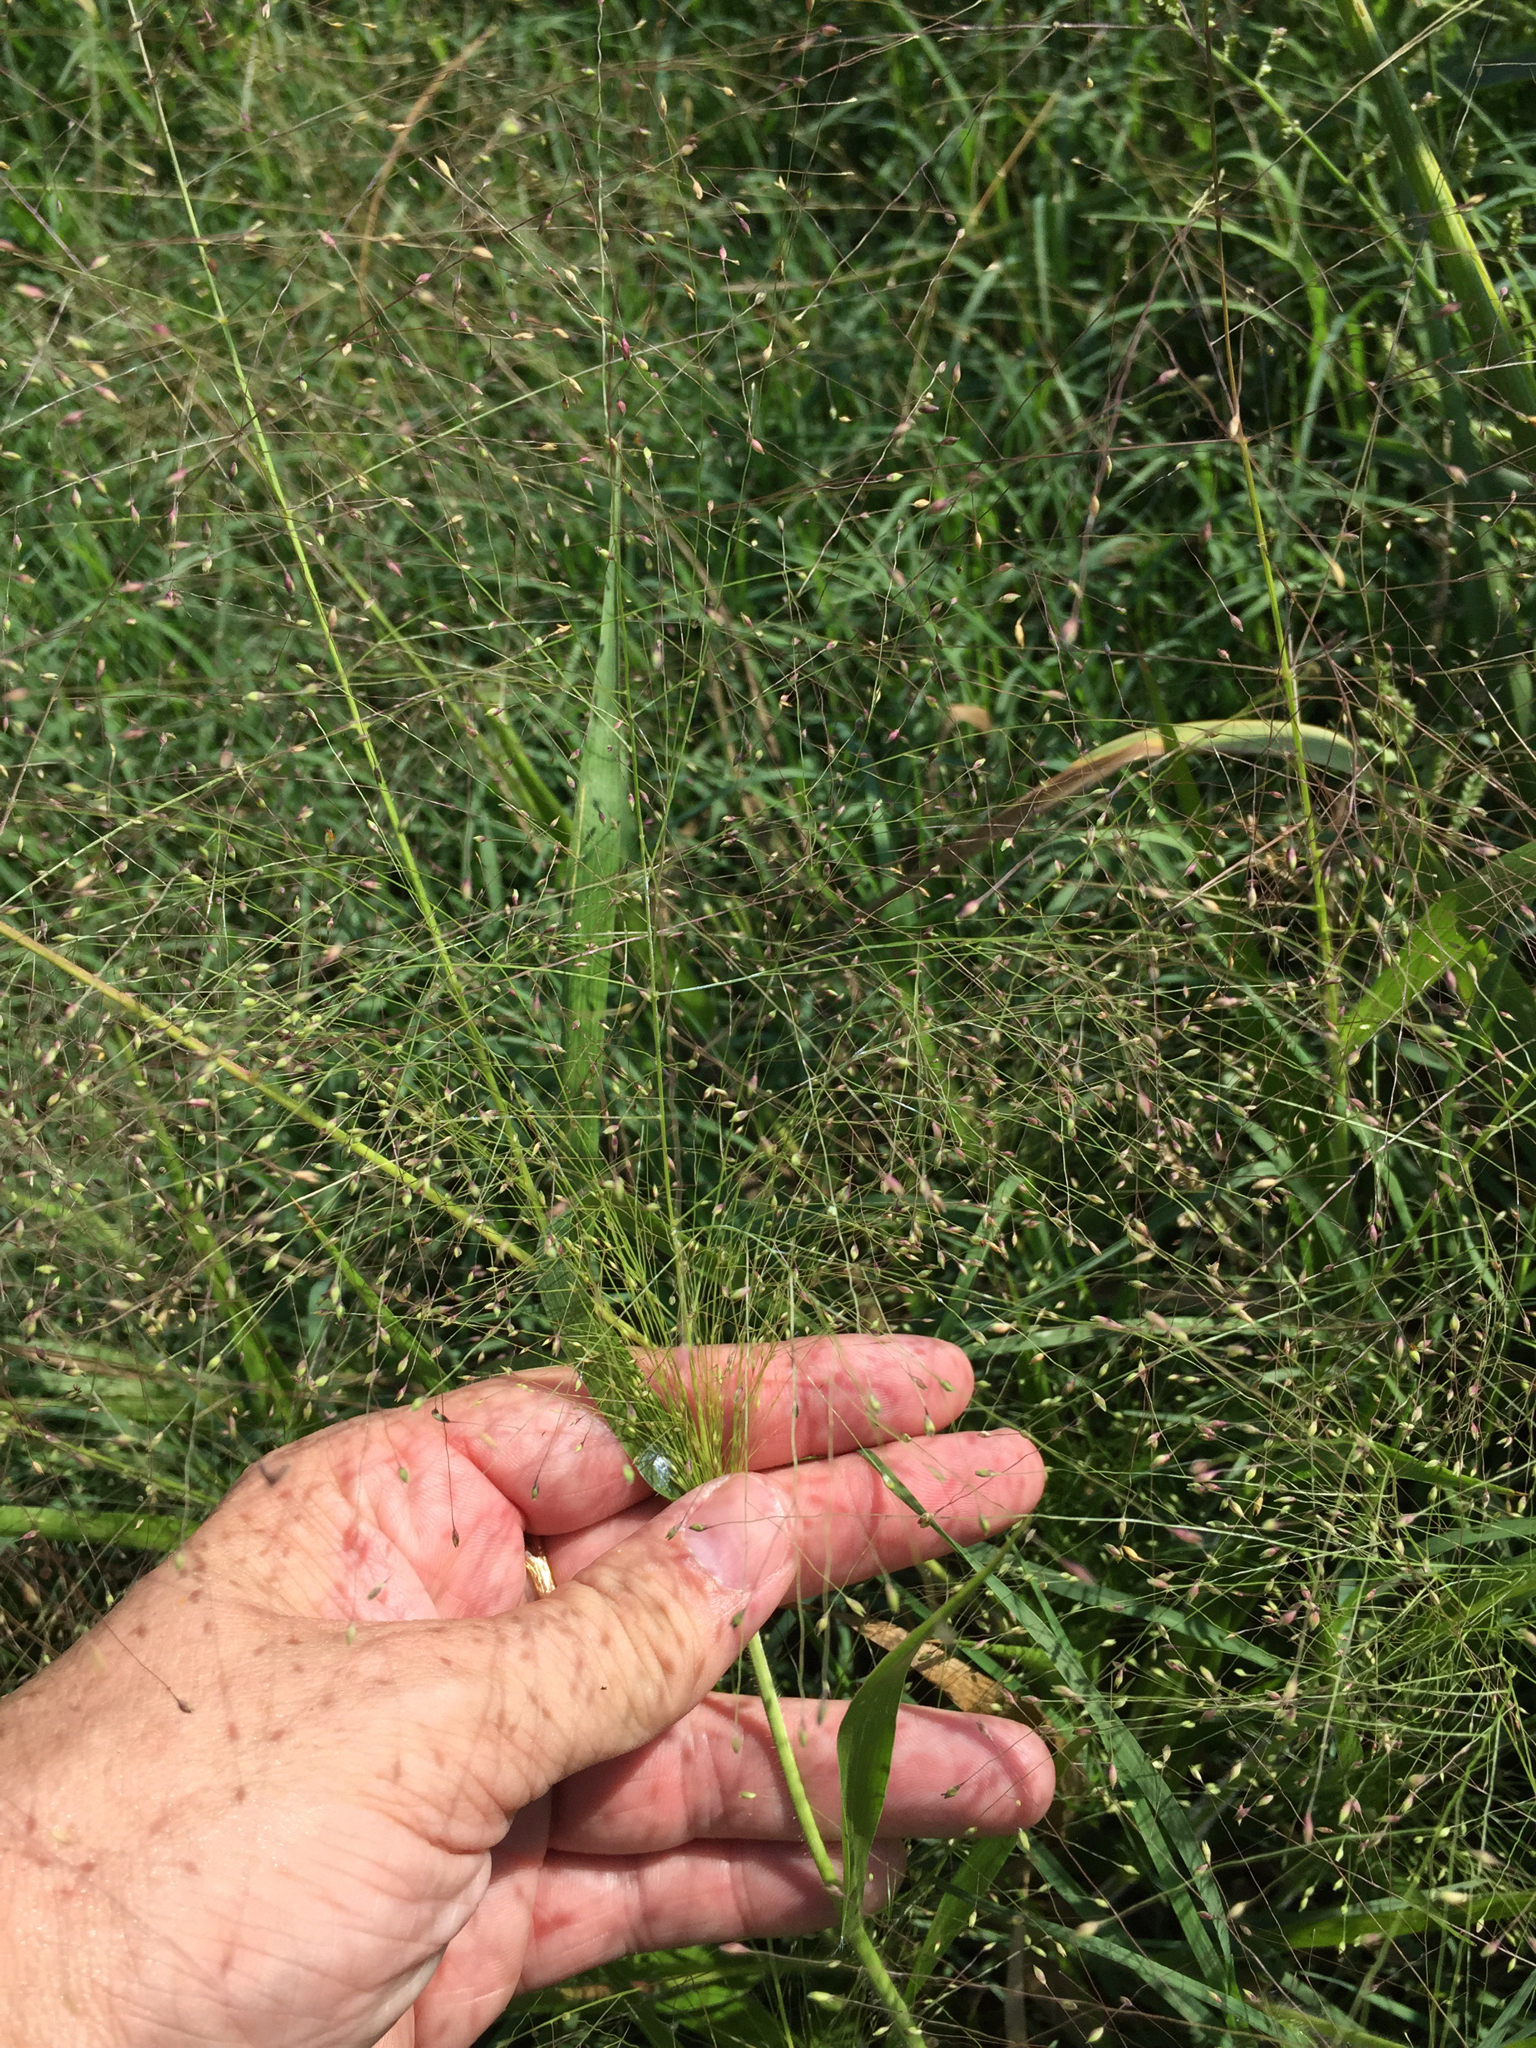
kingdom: Plantae
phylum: Tracheophyta
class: Liliopsida
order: Poales
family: Poaceae
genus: Panicum
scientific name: Panicum capillare
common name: Witch-grass
